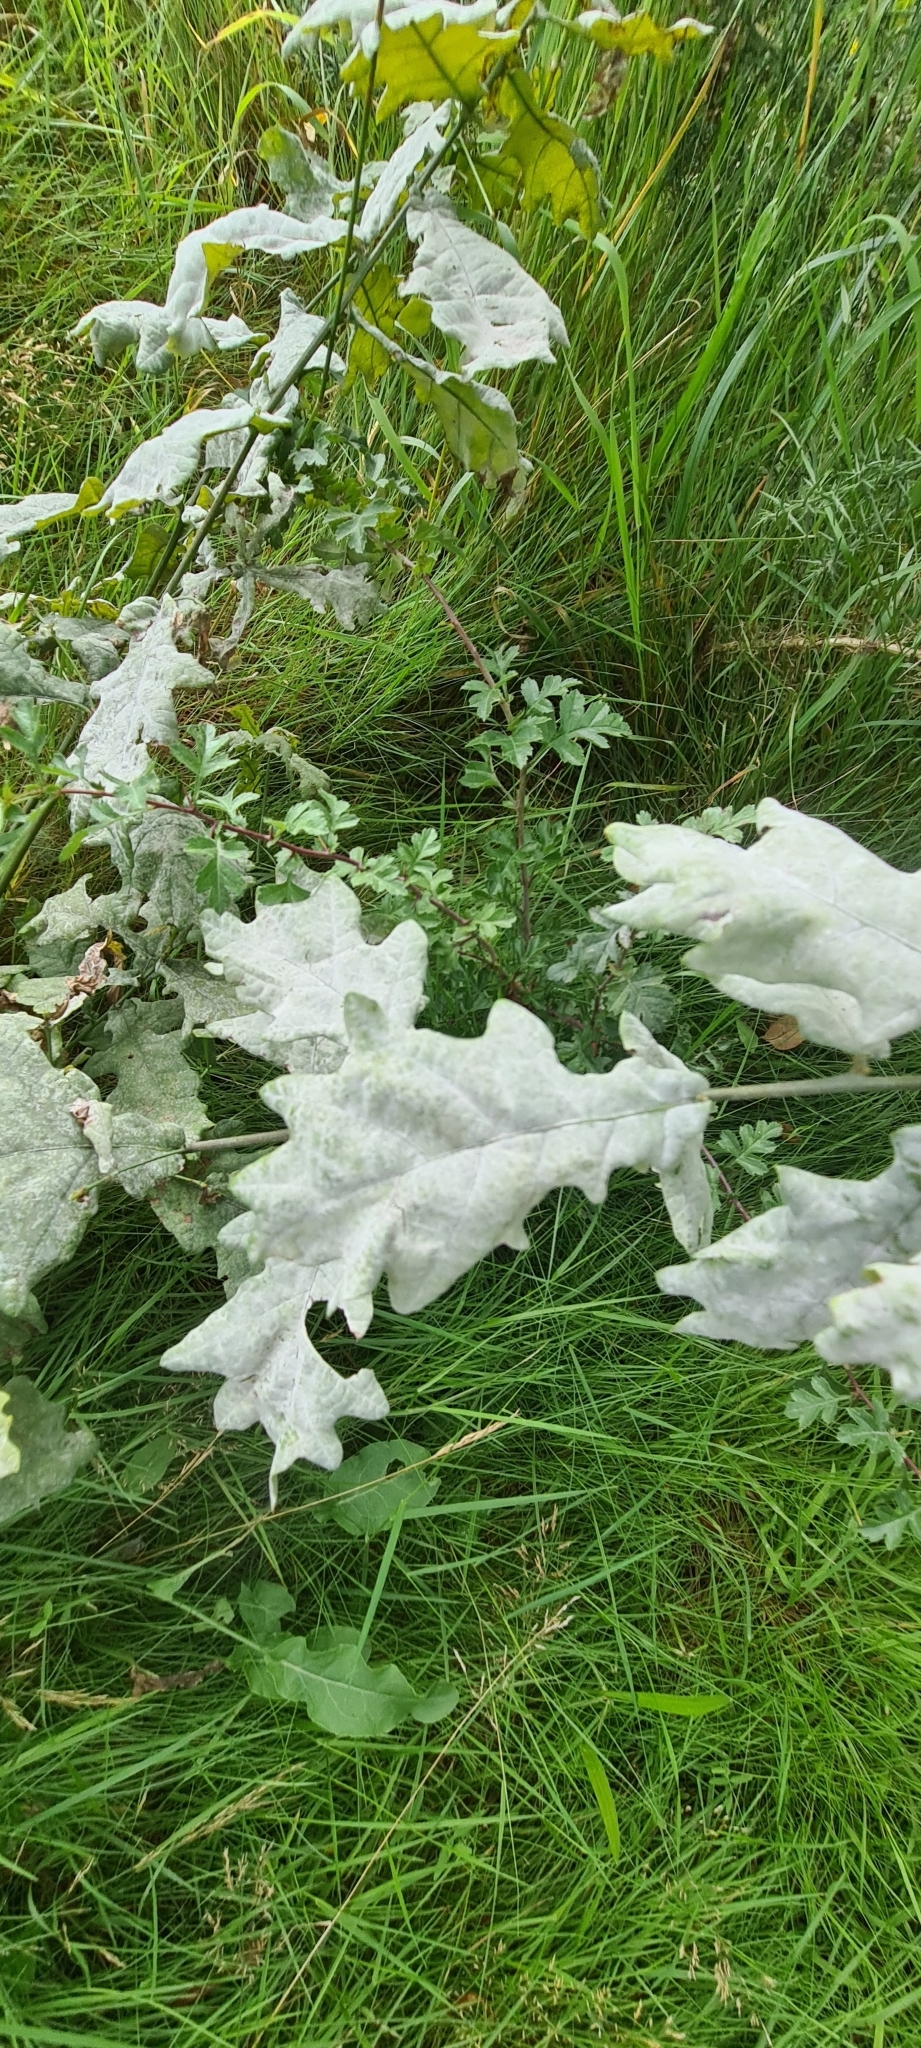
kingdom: Fungi
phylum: Ascomycota
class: Leotiomycetes
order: Helotiales
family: Erysiphaceae
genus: Erysiphe
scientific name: Erysiphe alphitoides
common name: Oak mildew
